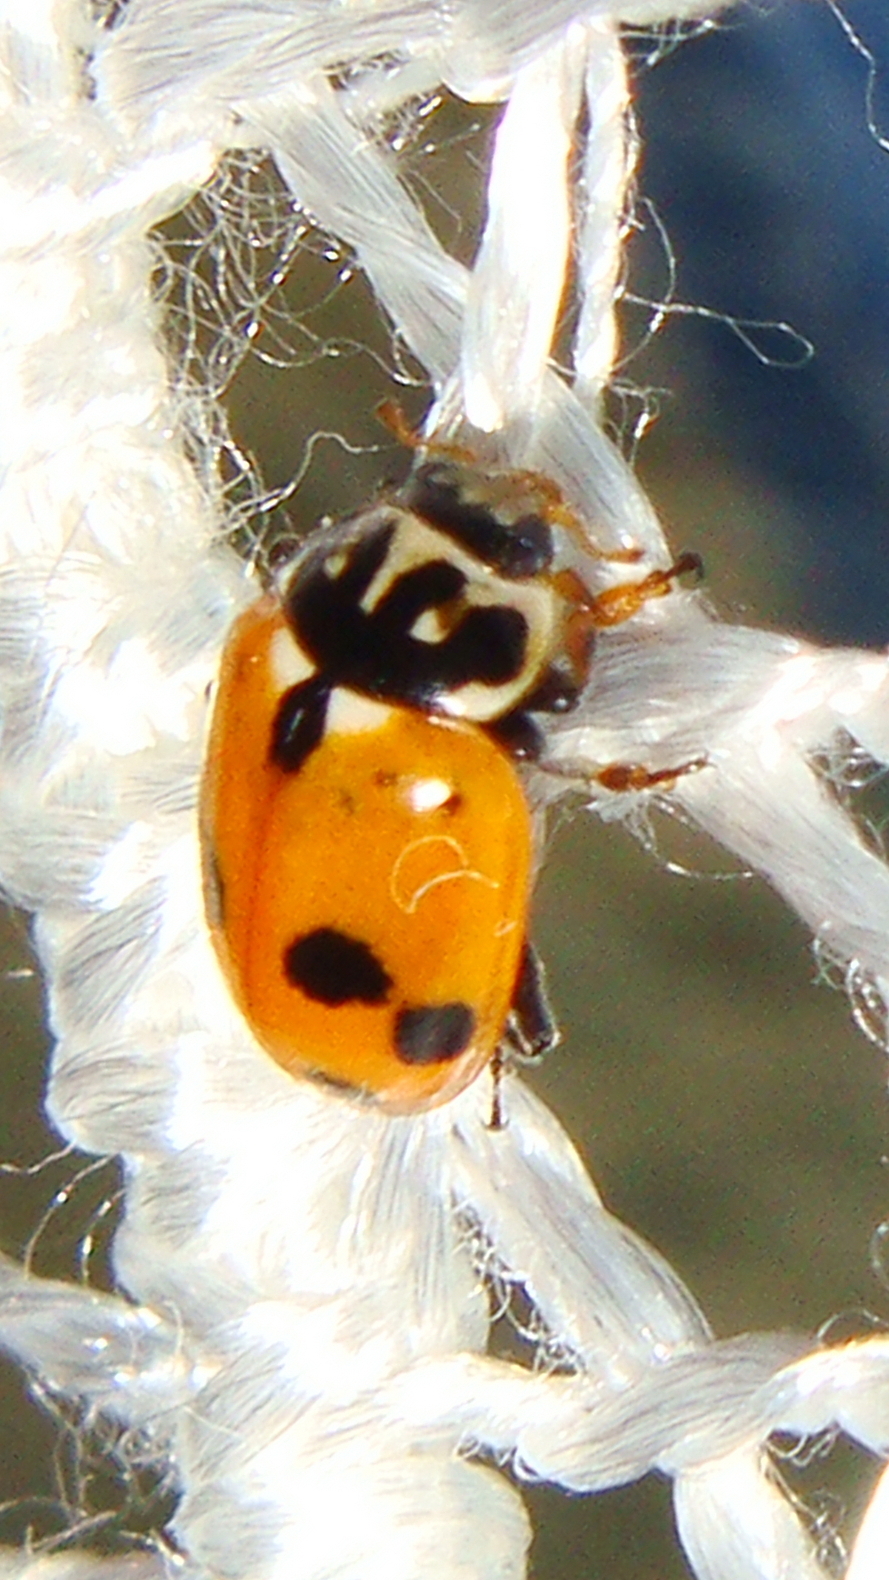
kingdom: Animalia
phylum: Arthropoda
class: Insecta
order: Coleoptera
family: Coccinellidae
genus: Hippodamia
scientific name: Hippodamia variegata
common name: Ladybird beetle
